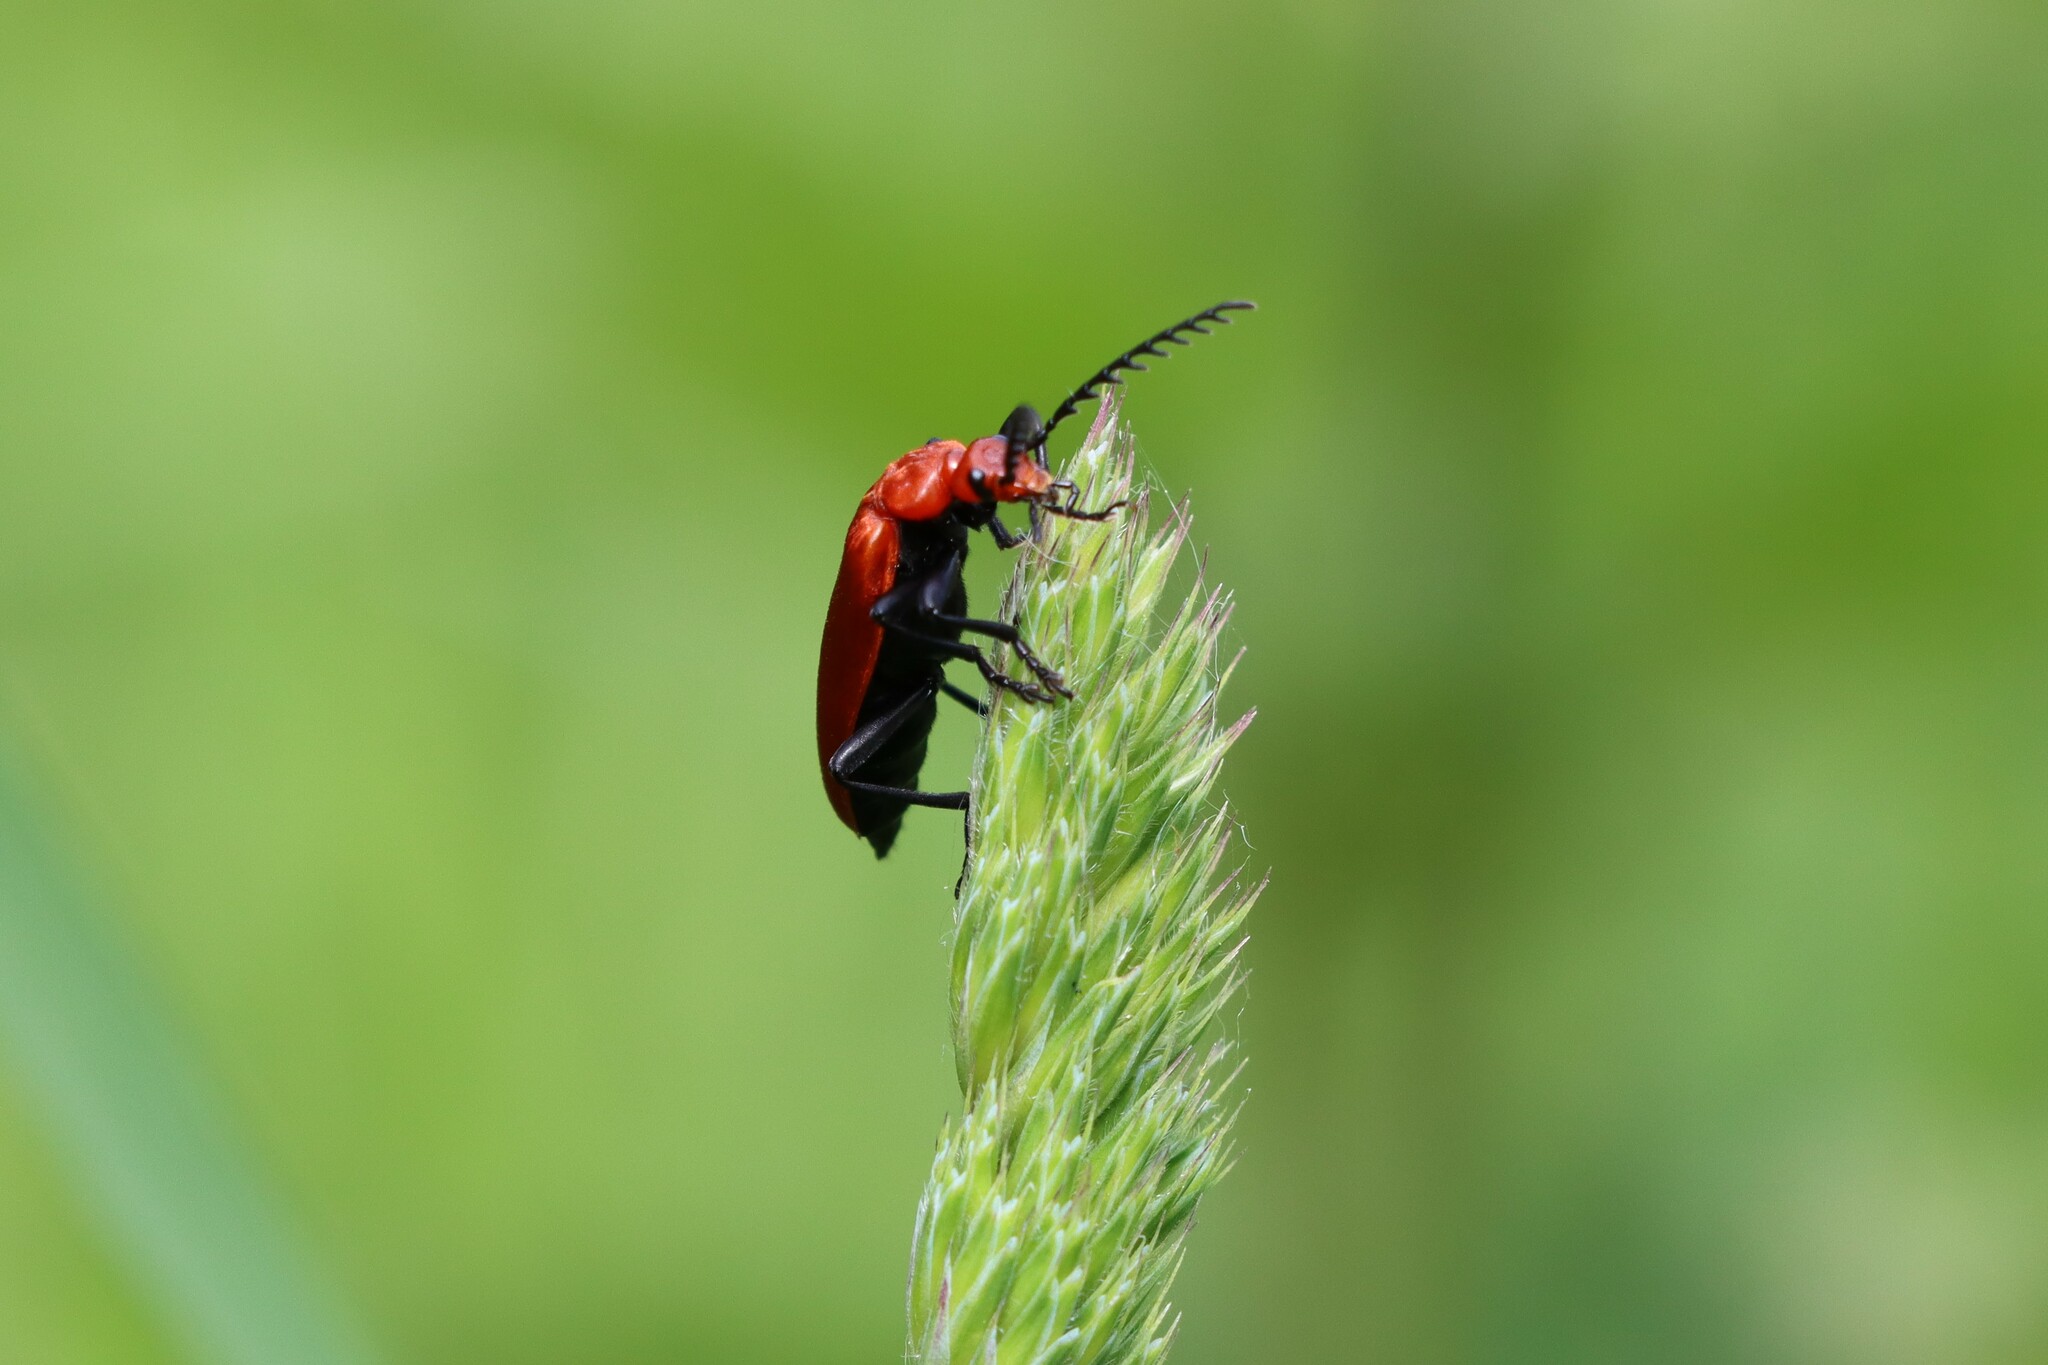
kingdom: Animalia
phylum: Arthropoda
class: Insecta
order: Coleoptera
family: Pyrochroidae
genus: Pyrochroa
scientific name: Pyrochroa serraticornis
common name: Red-headed cardinal beetle
